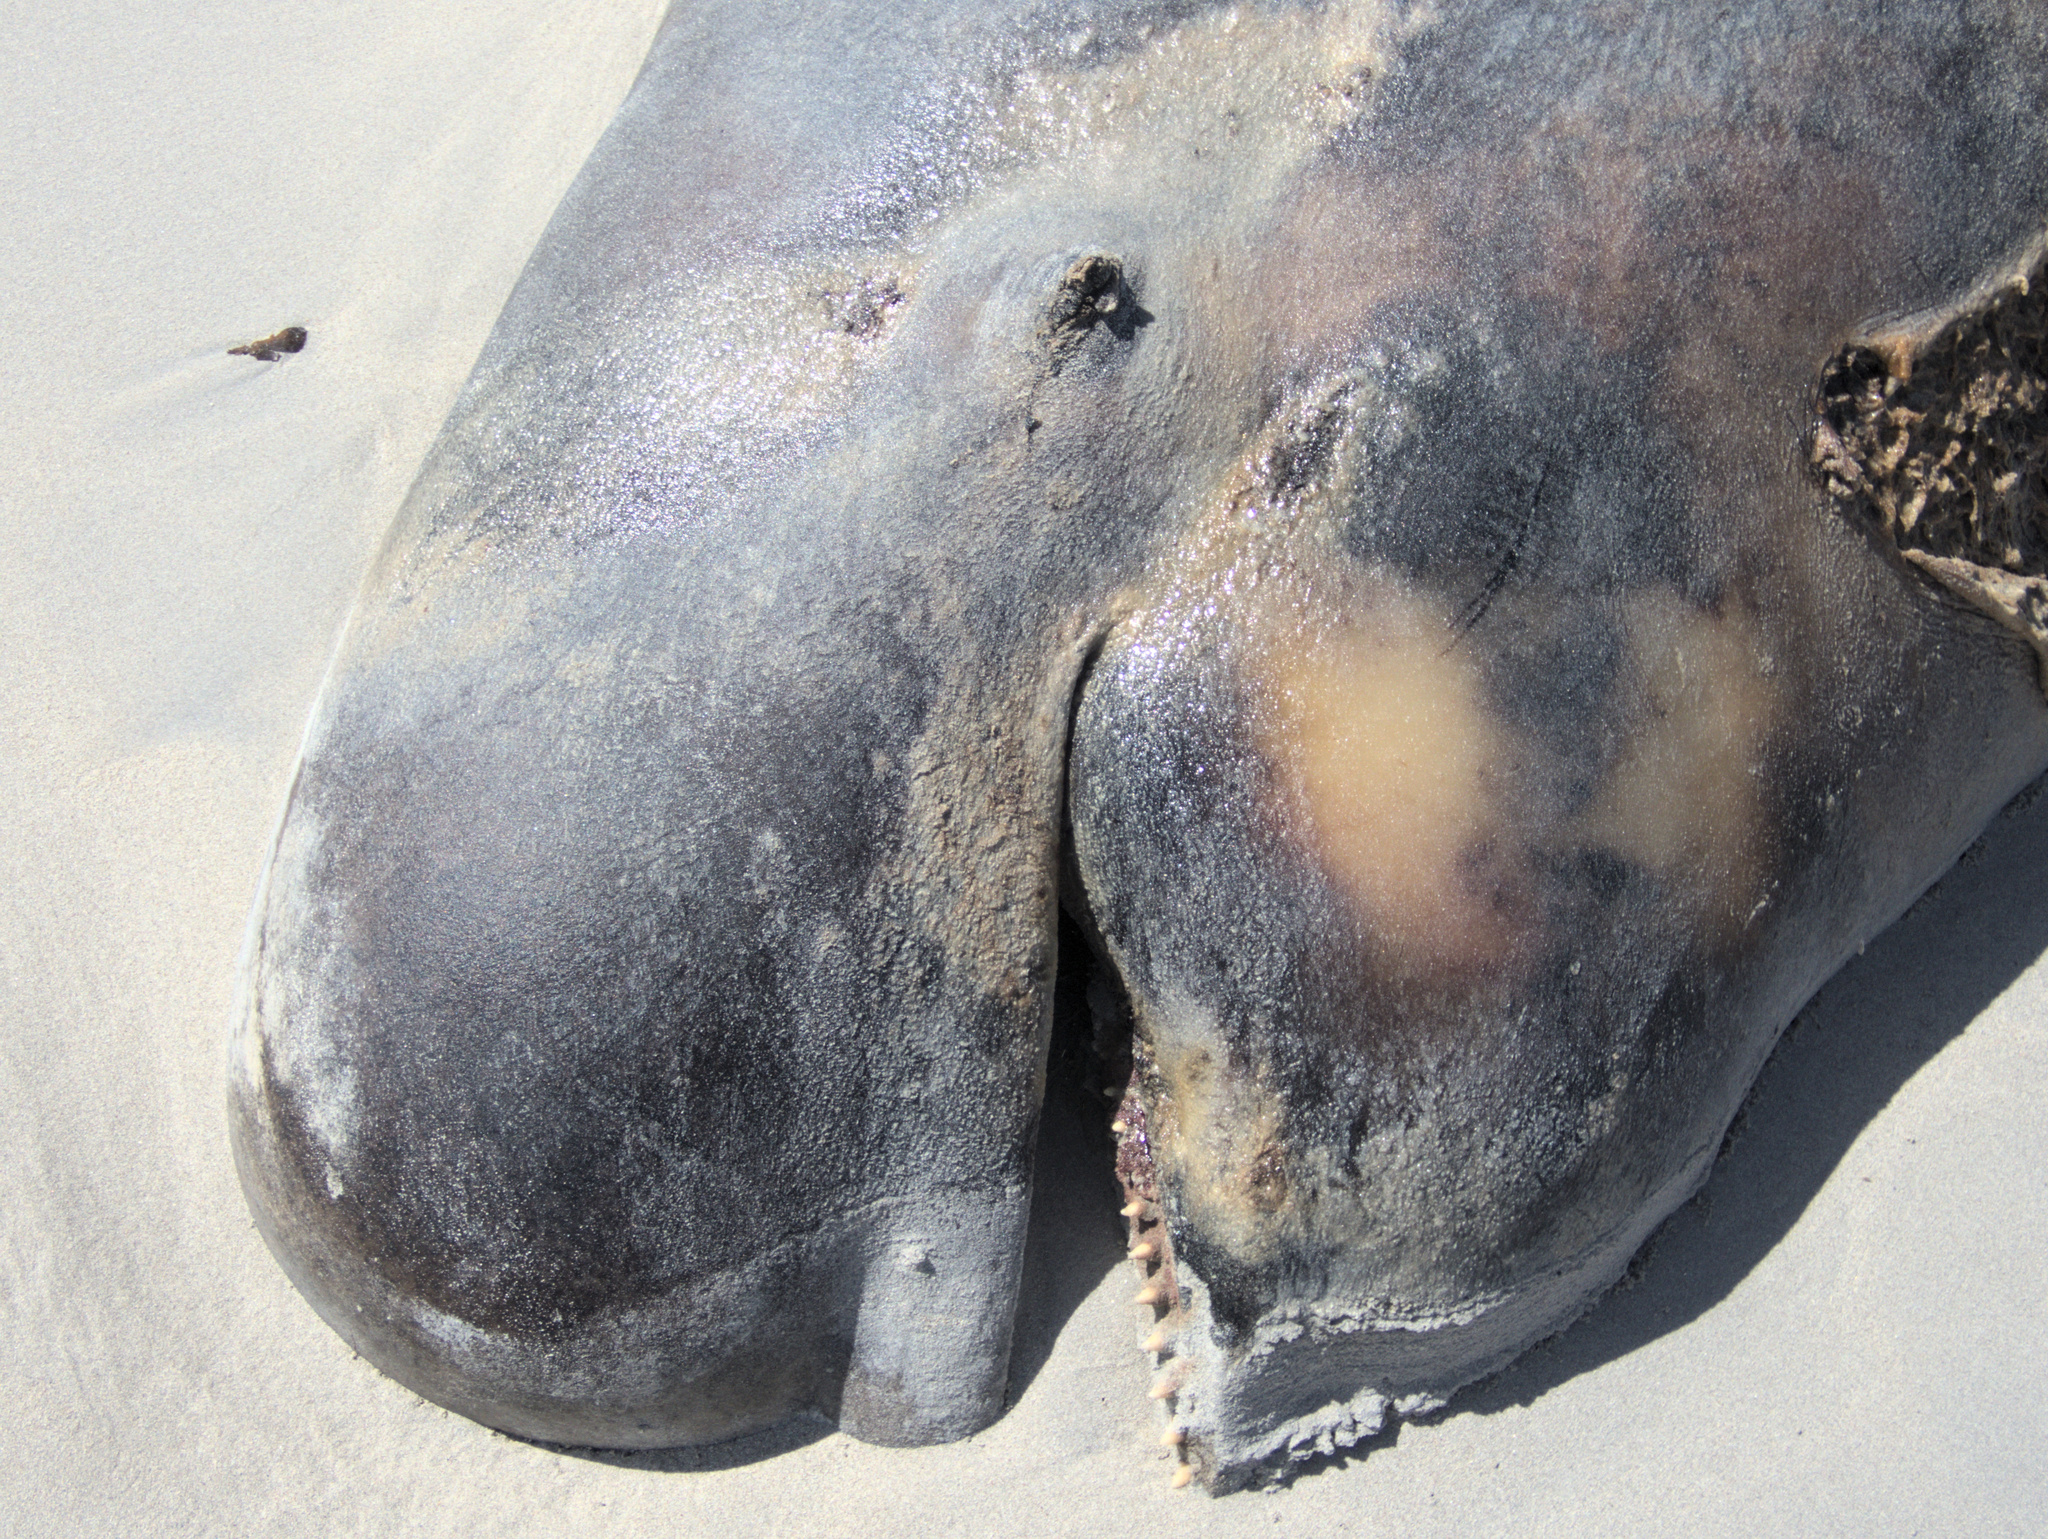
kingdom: Animalia
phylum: Chordata
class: Mammalia
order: Cetacea
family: Delphinidae
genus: Globicephala
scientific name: Globicephala melas
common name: Long-finned pilot whale
